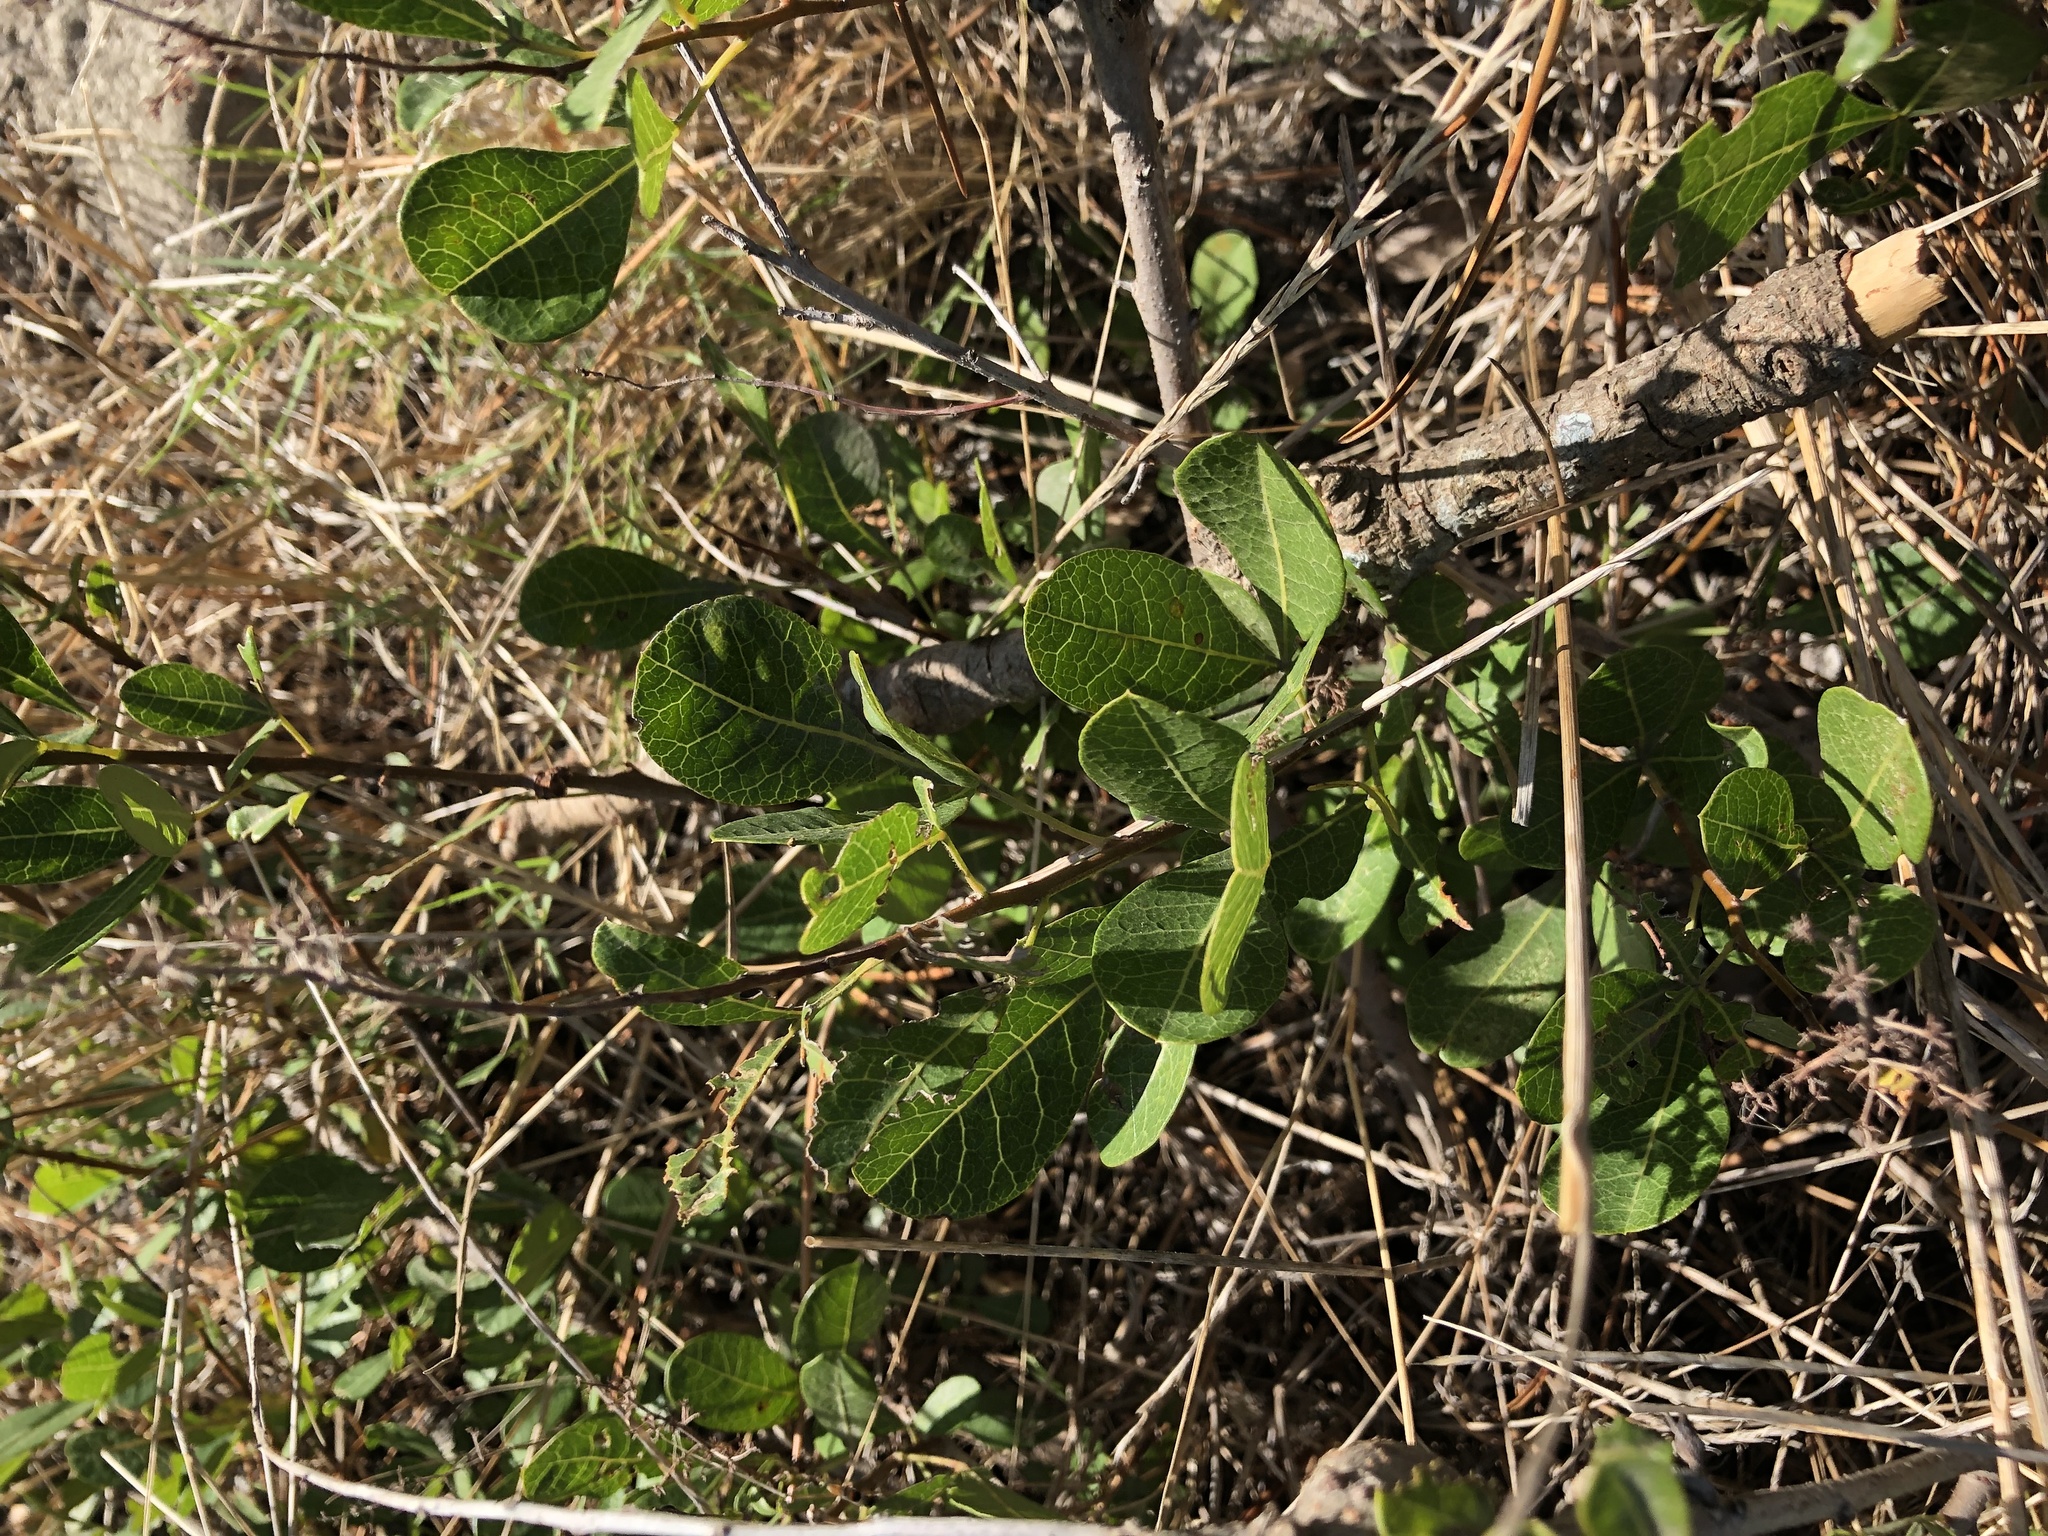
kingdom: Plantae
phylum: Tracheophyta
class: Magnoliopsida
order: Sapindales
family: Anacardiaceae
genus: Searsia
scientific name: Searsia laevigata
